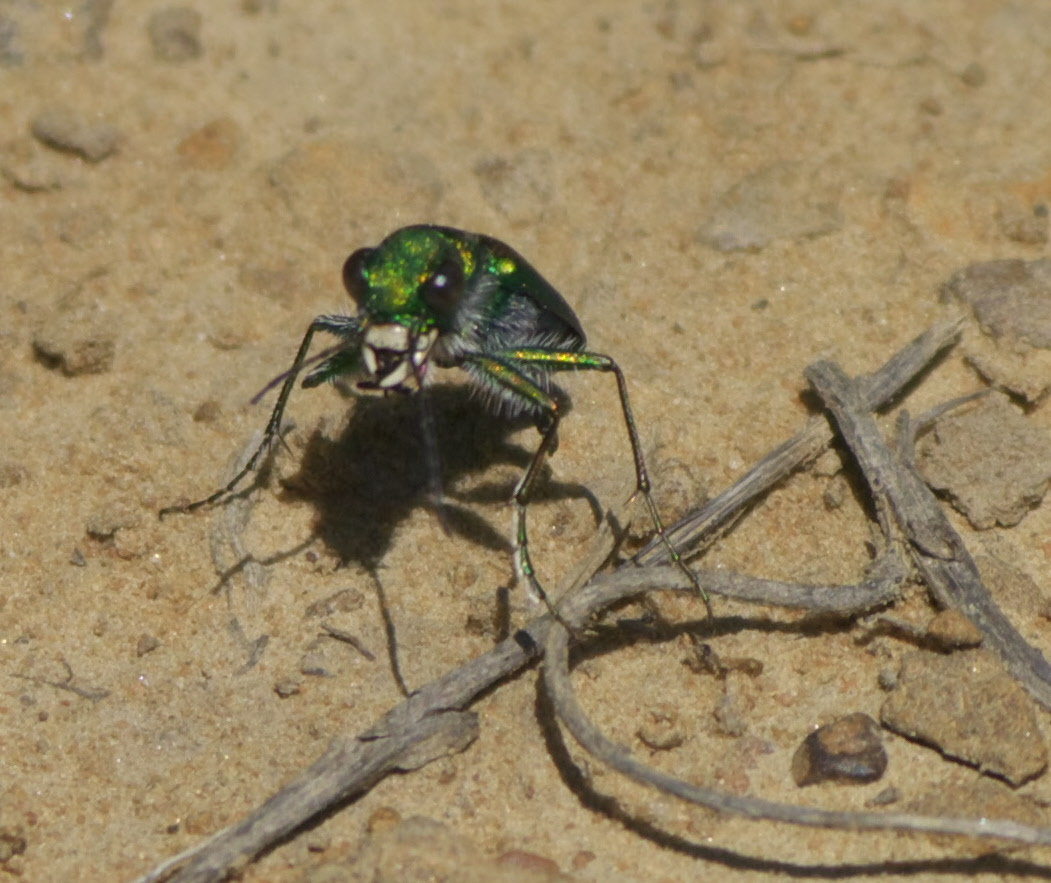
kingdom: Animalia
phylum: Arthropoda
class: Insecta
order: Coleoptera
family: Carabidae
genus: Cicindela
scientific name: Cicindela splendida
